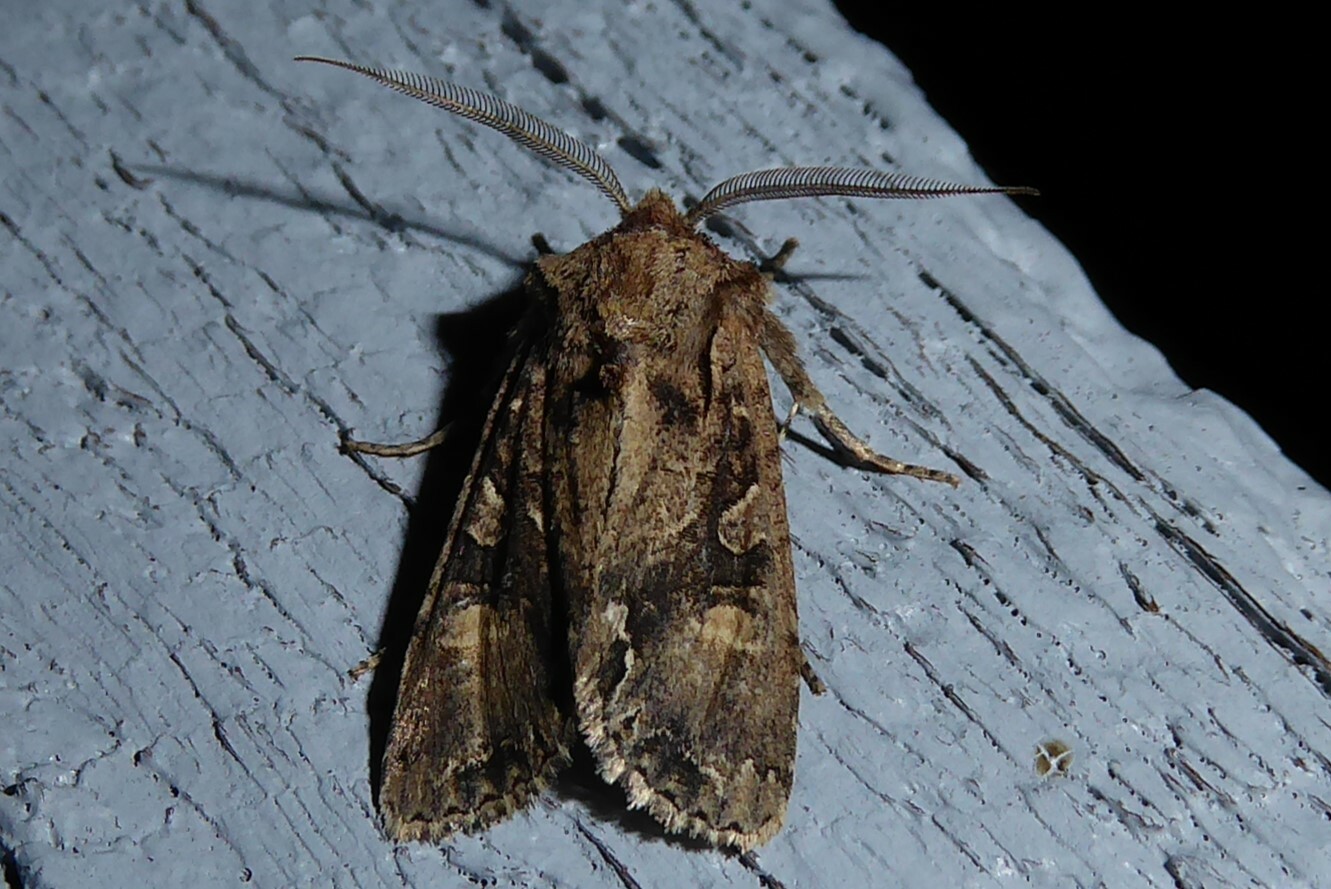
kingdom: Animalia
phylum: Arthropoda
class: Insecta
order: Lepidoptera
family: Noctuidae
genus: Ichneutica
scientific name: Ichneutica
